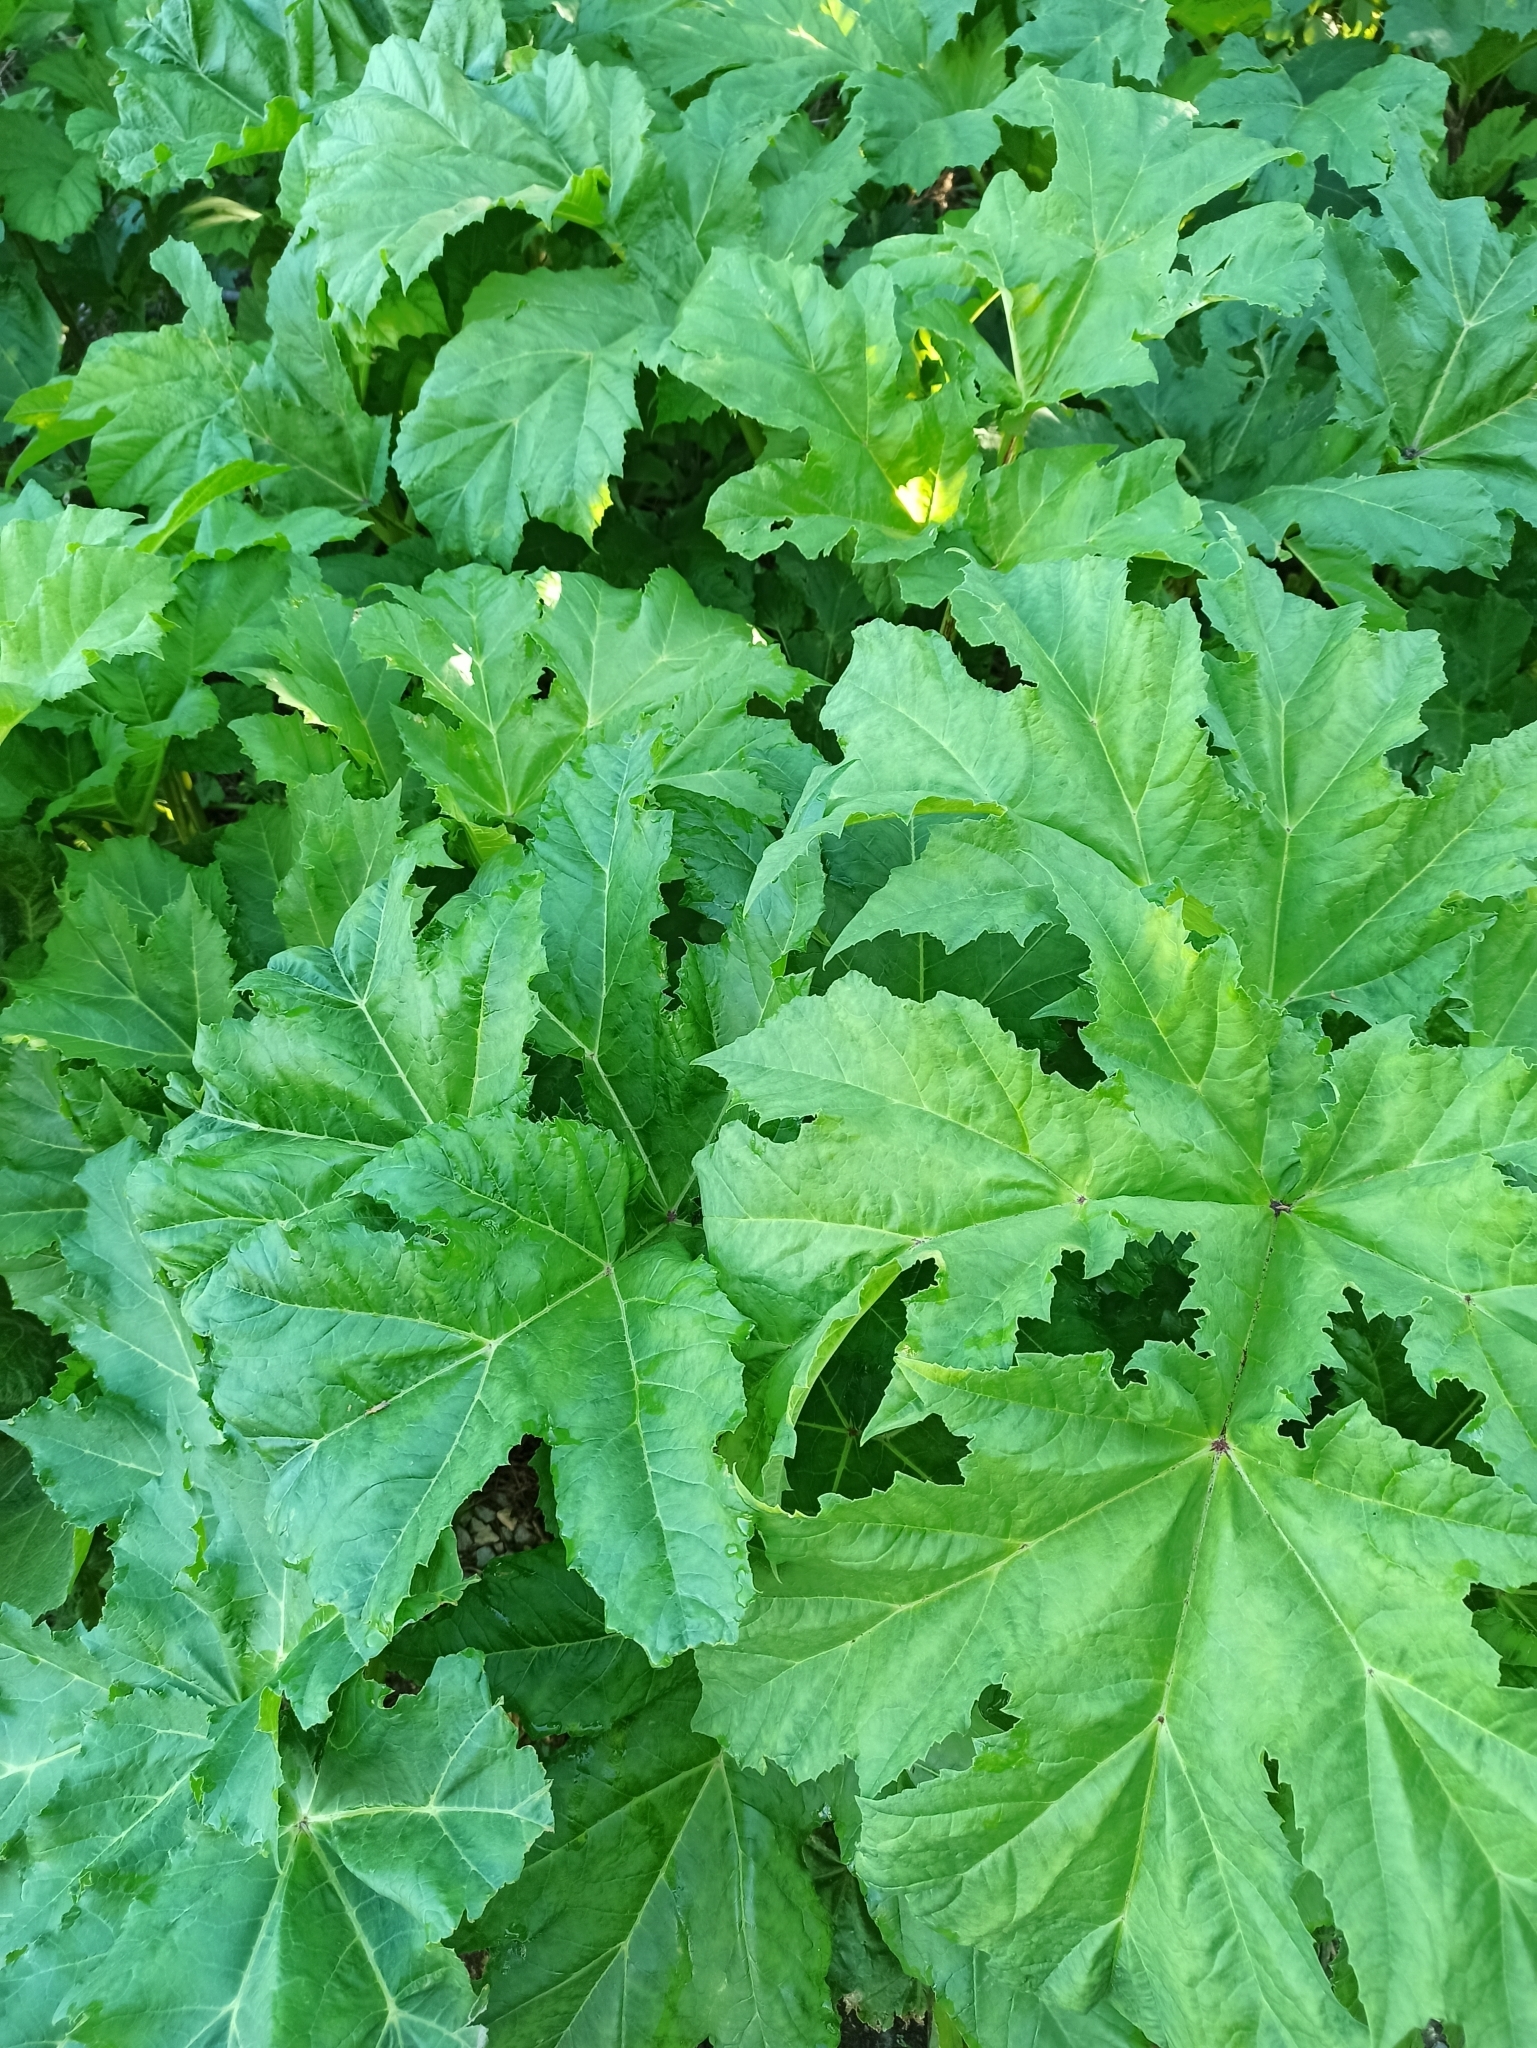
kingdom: Plantae
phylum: Tracheophyta
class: Magnoliopsida
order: Apiales
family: Apiaceae
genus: Heracleum
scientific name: Heracleum sosnowskyi
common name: Sosnowsky's hogweed
